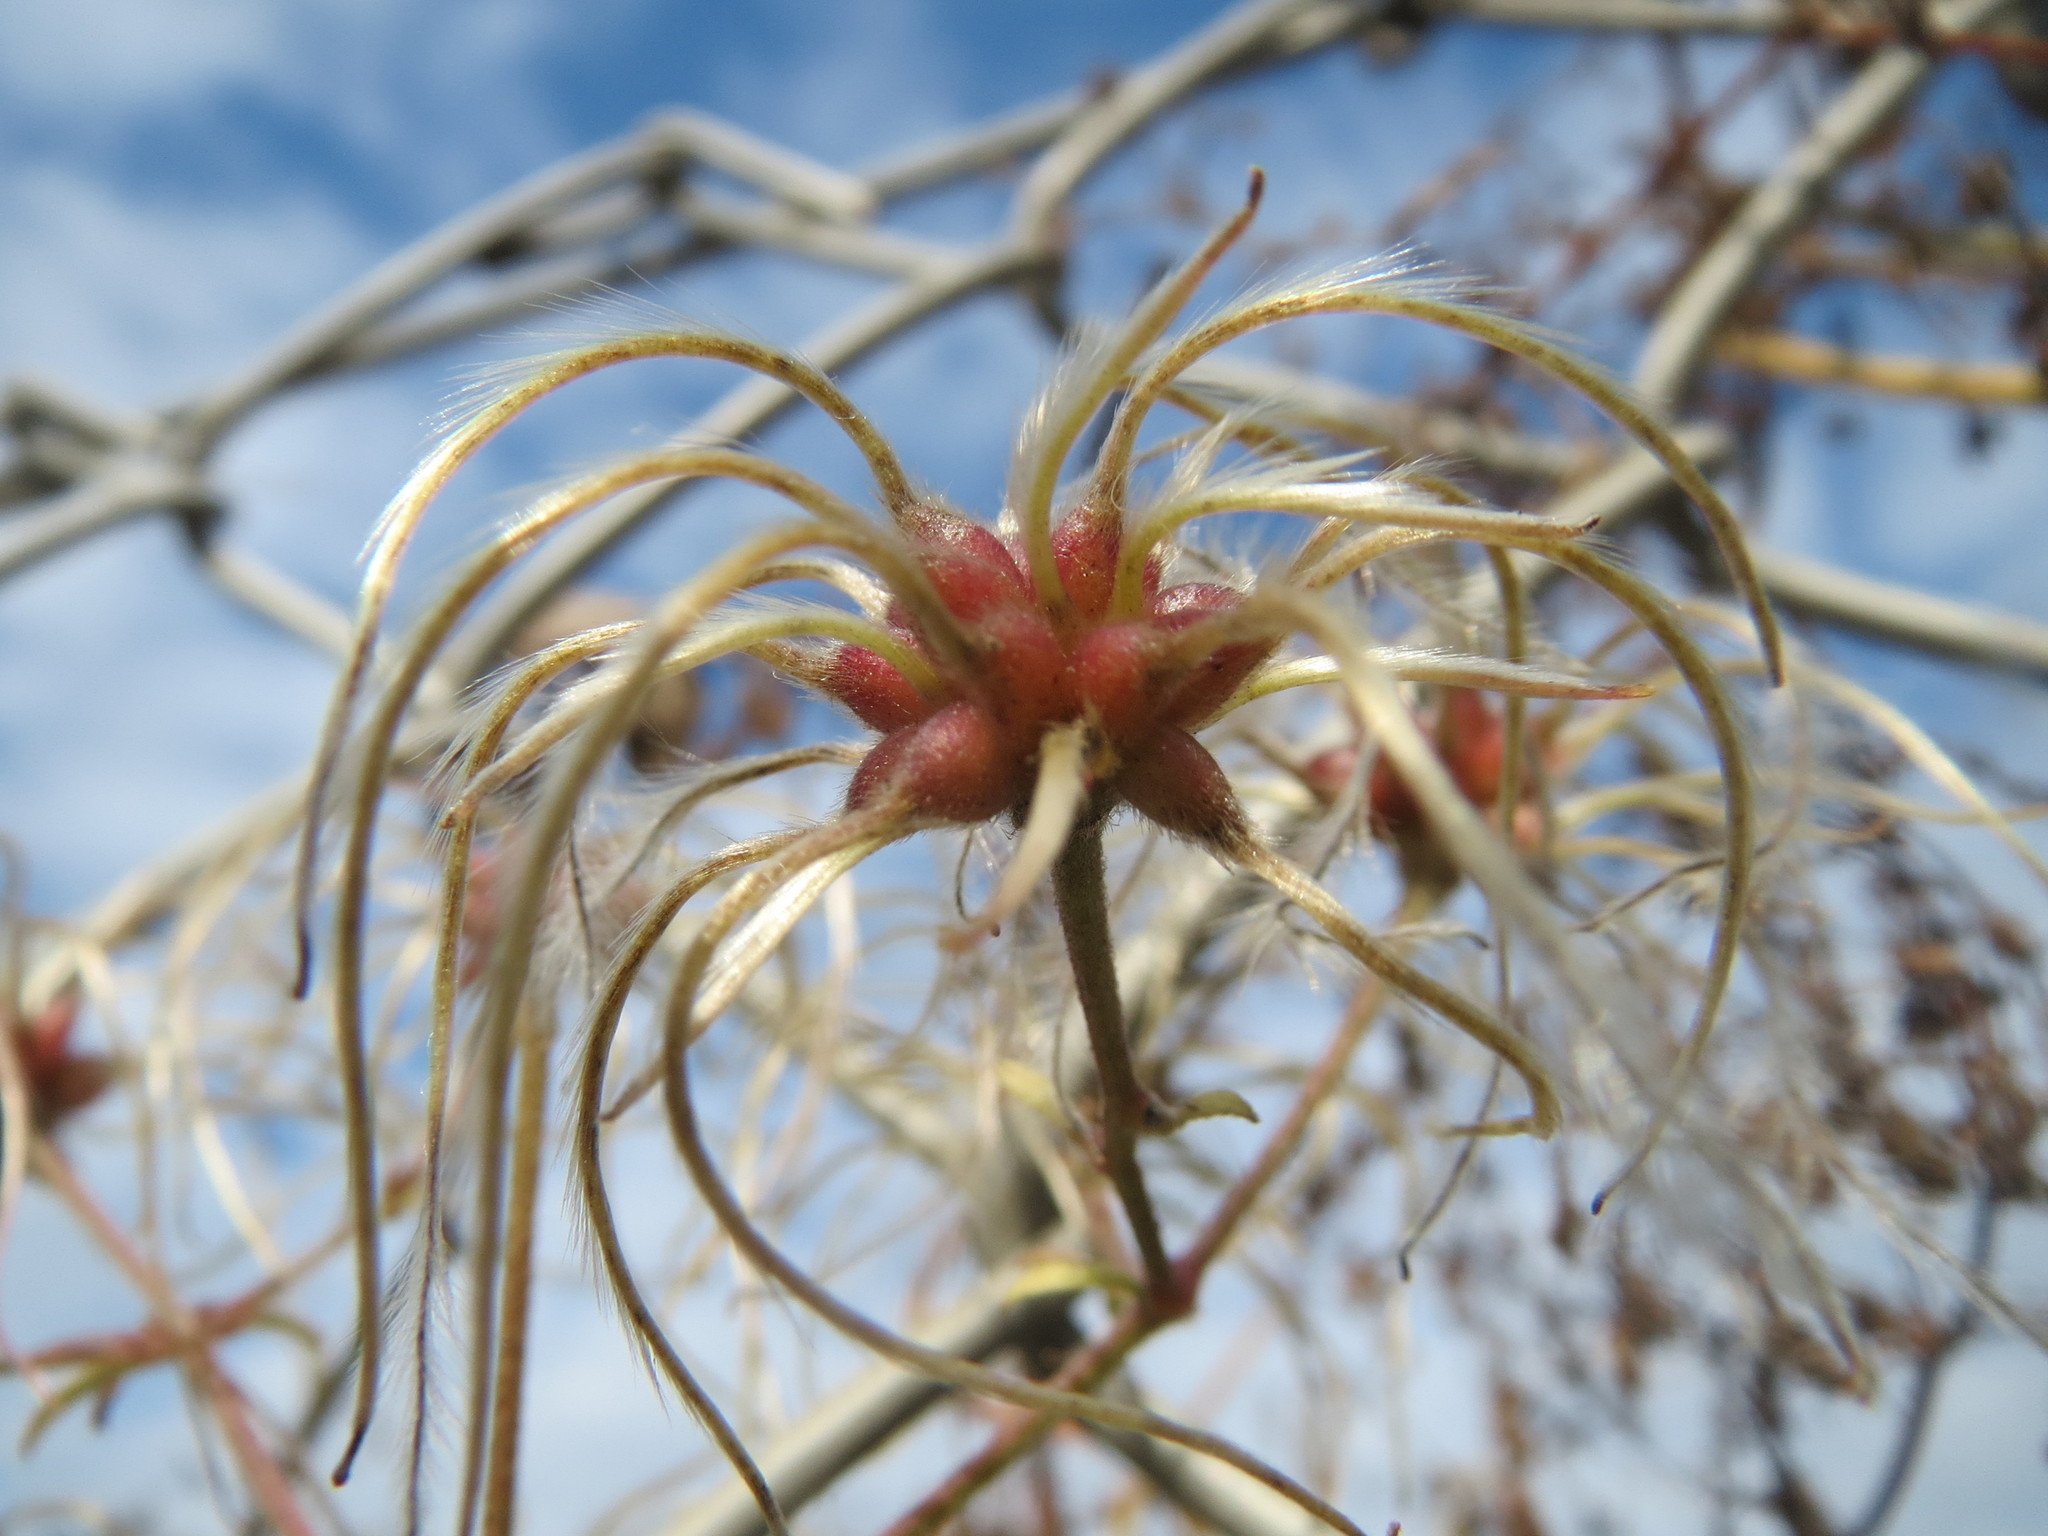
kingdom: Plantae
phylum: Tracheophyta
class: Magnoliopsida
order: Ranunculales
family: Ranunculaceae
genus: Clematis
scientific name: Clematis vitalba
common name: Evergreen clematis
